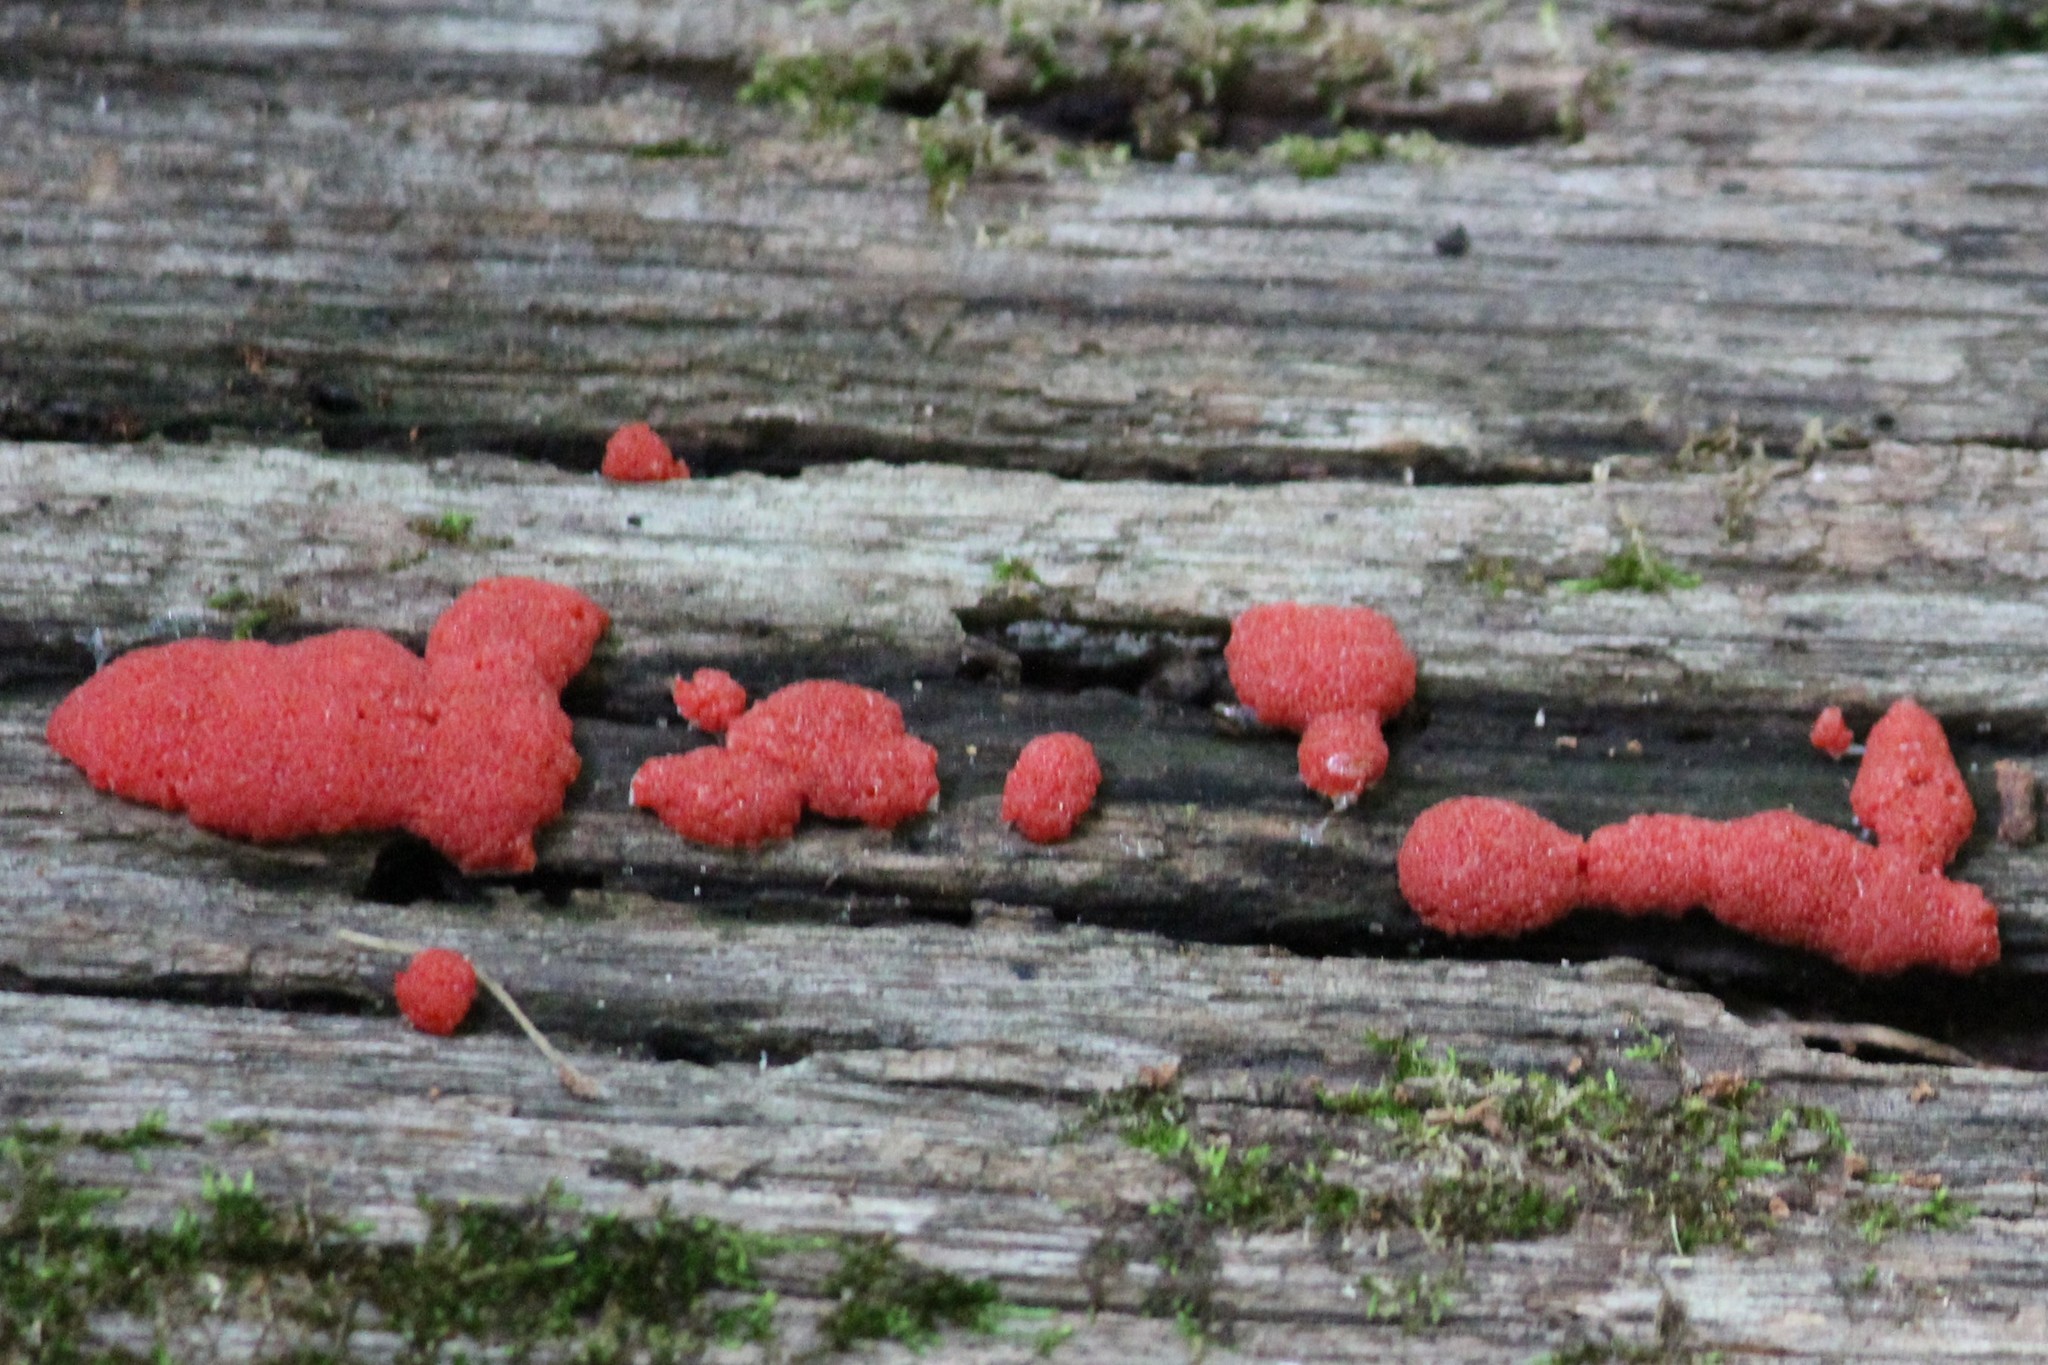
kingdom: Protozoa
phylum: Mycetozoa
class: Myxomycetes
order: Cribrariales
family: Tubiferaceae
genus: Tubifera
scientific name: Tubifera ferruginosa
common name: Red raspberry slime mold
